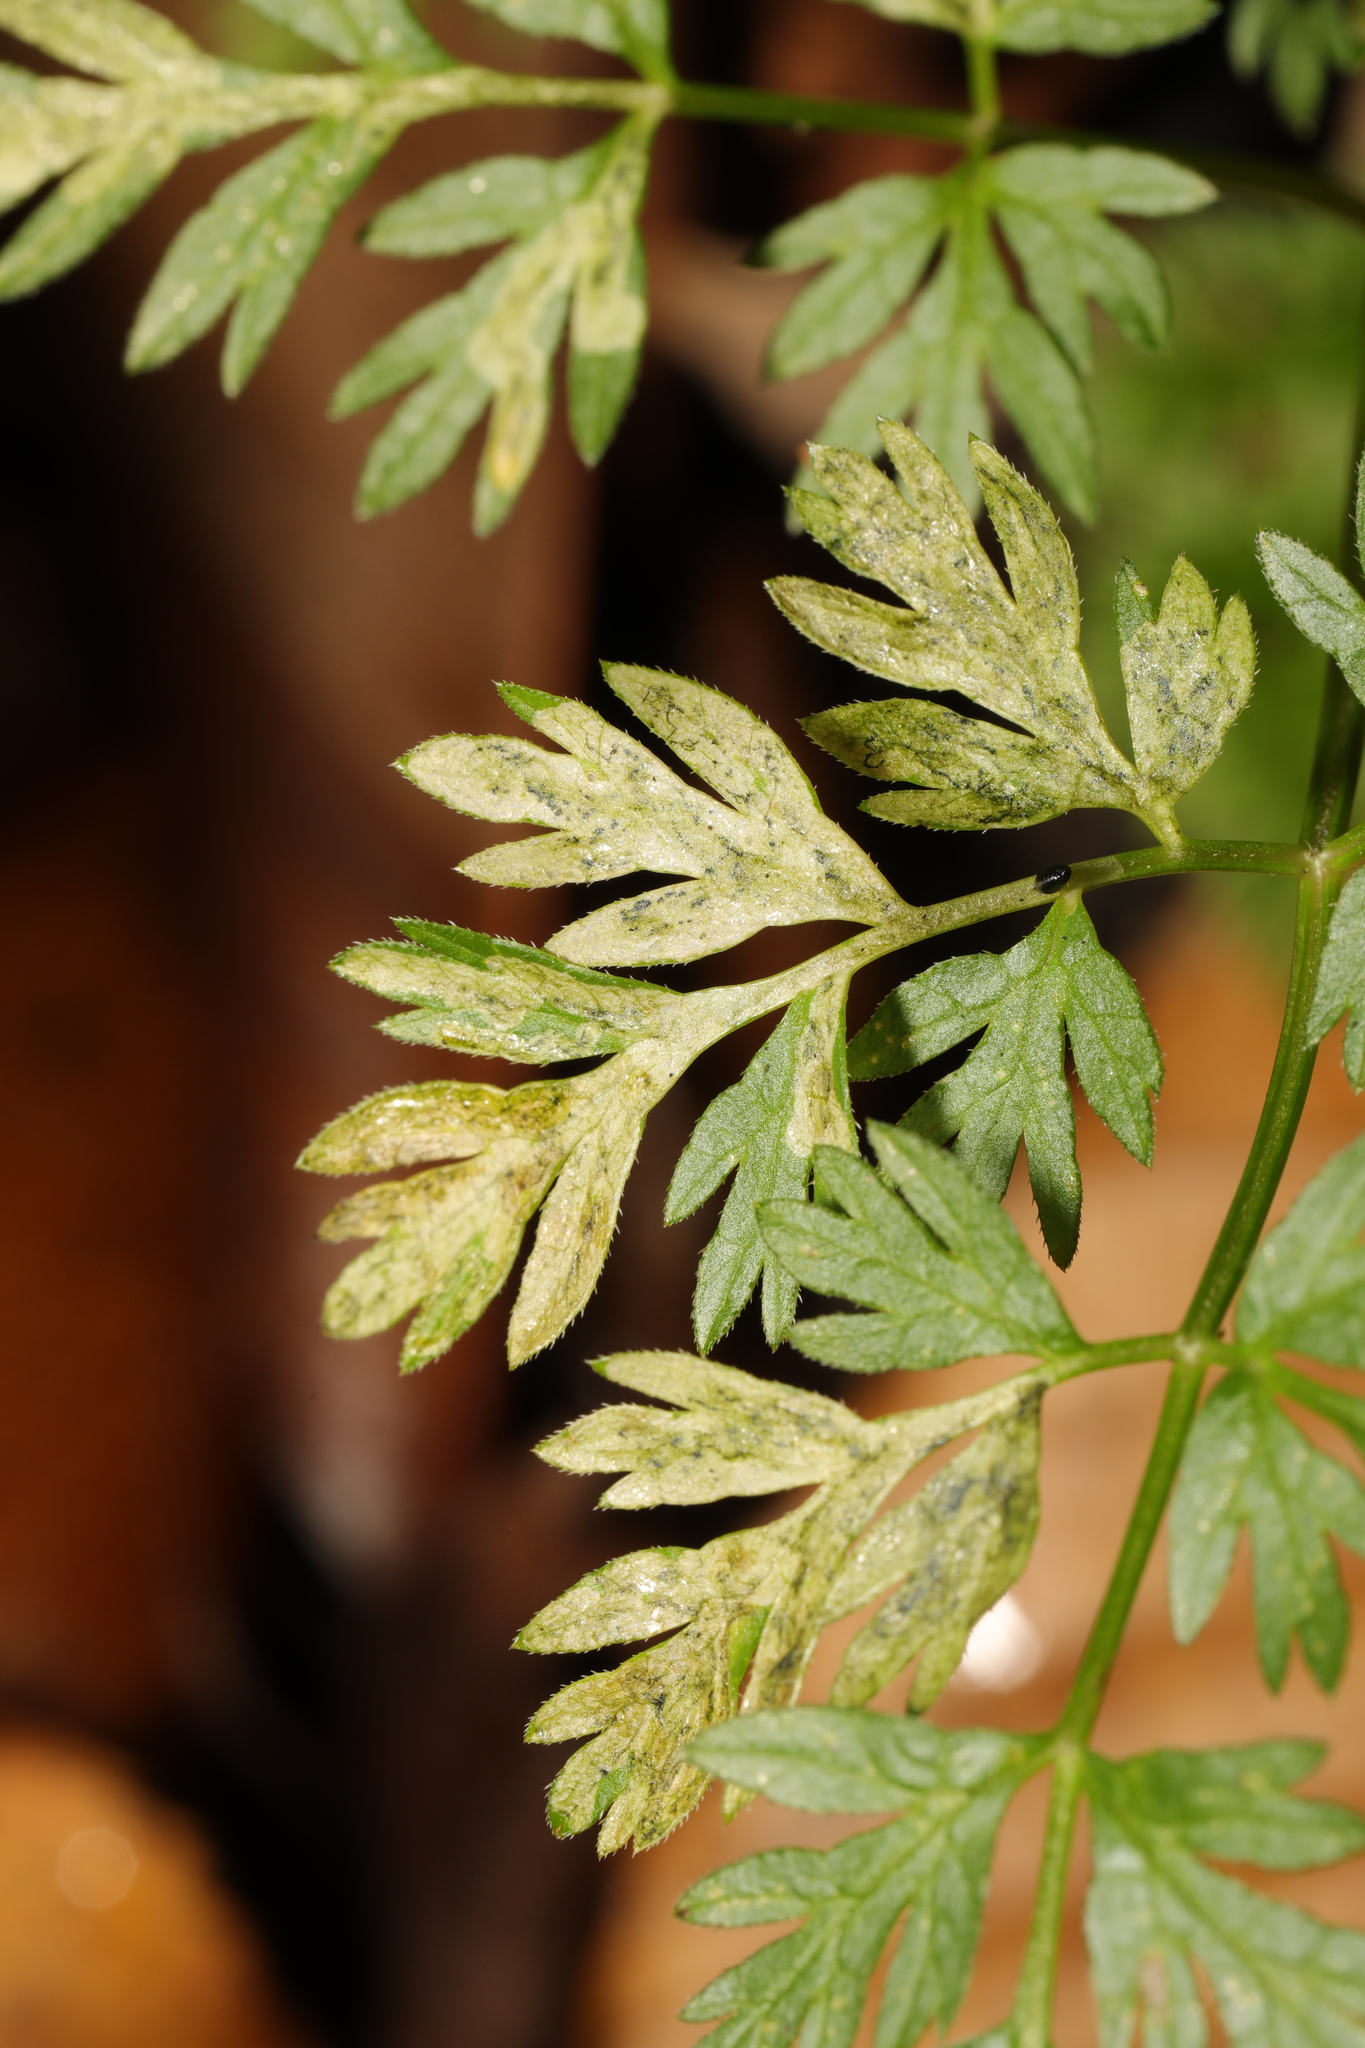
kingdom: Animalia
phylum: Arthropoda
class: Insecta
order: Diptera
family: Agromyzidae
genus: Phytomyza
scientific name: Phytomyza chaerophylli
